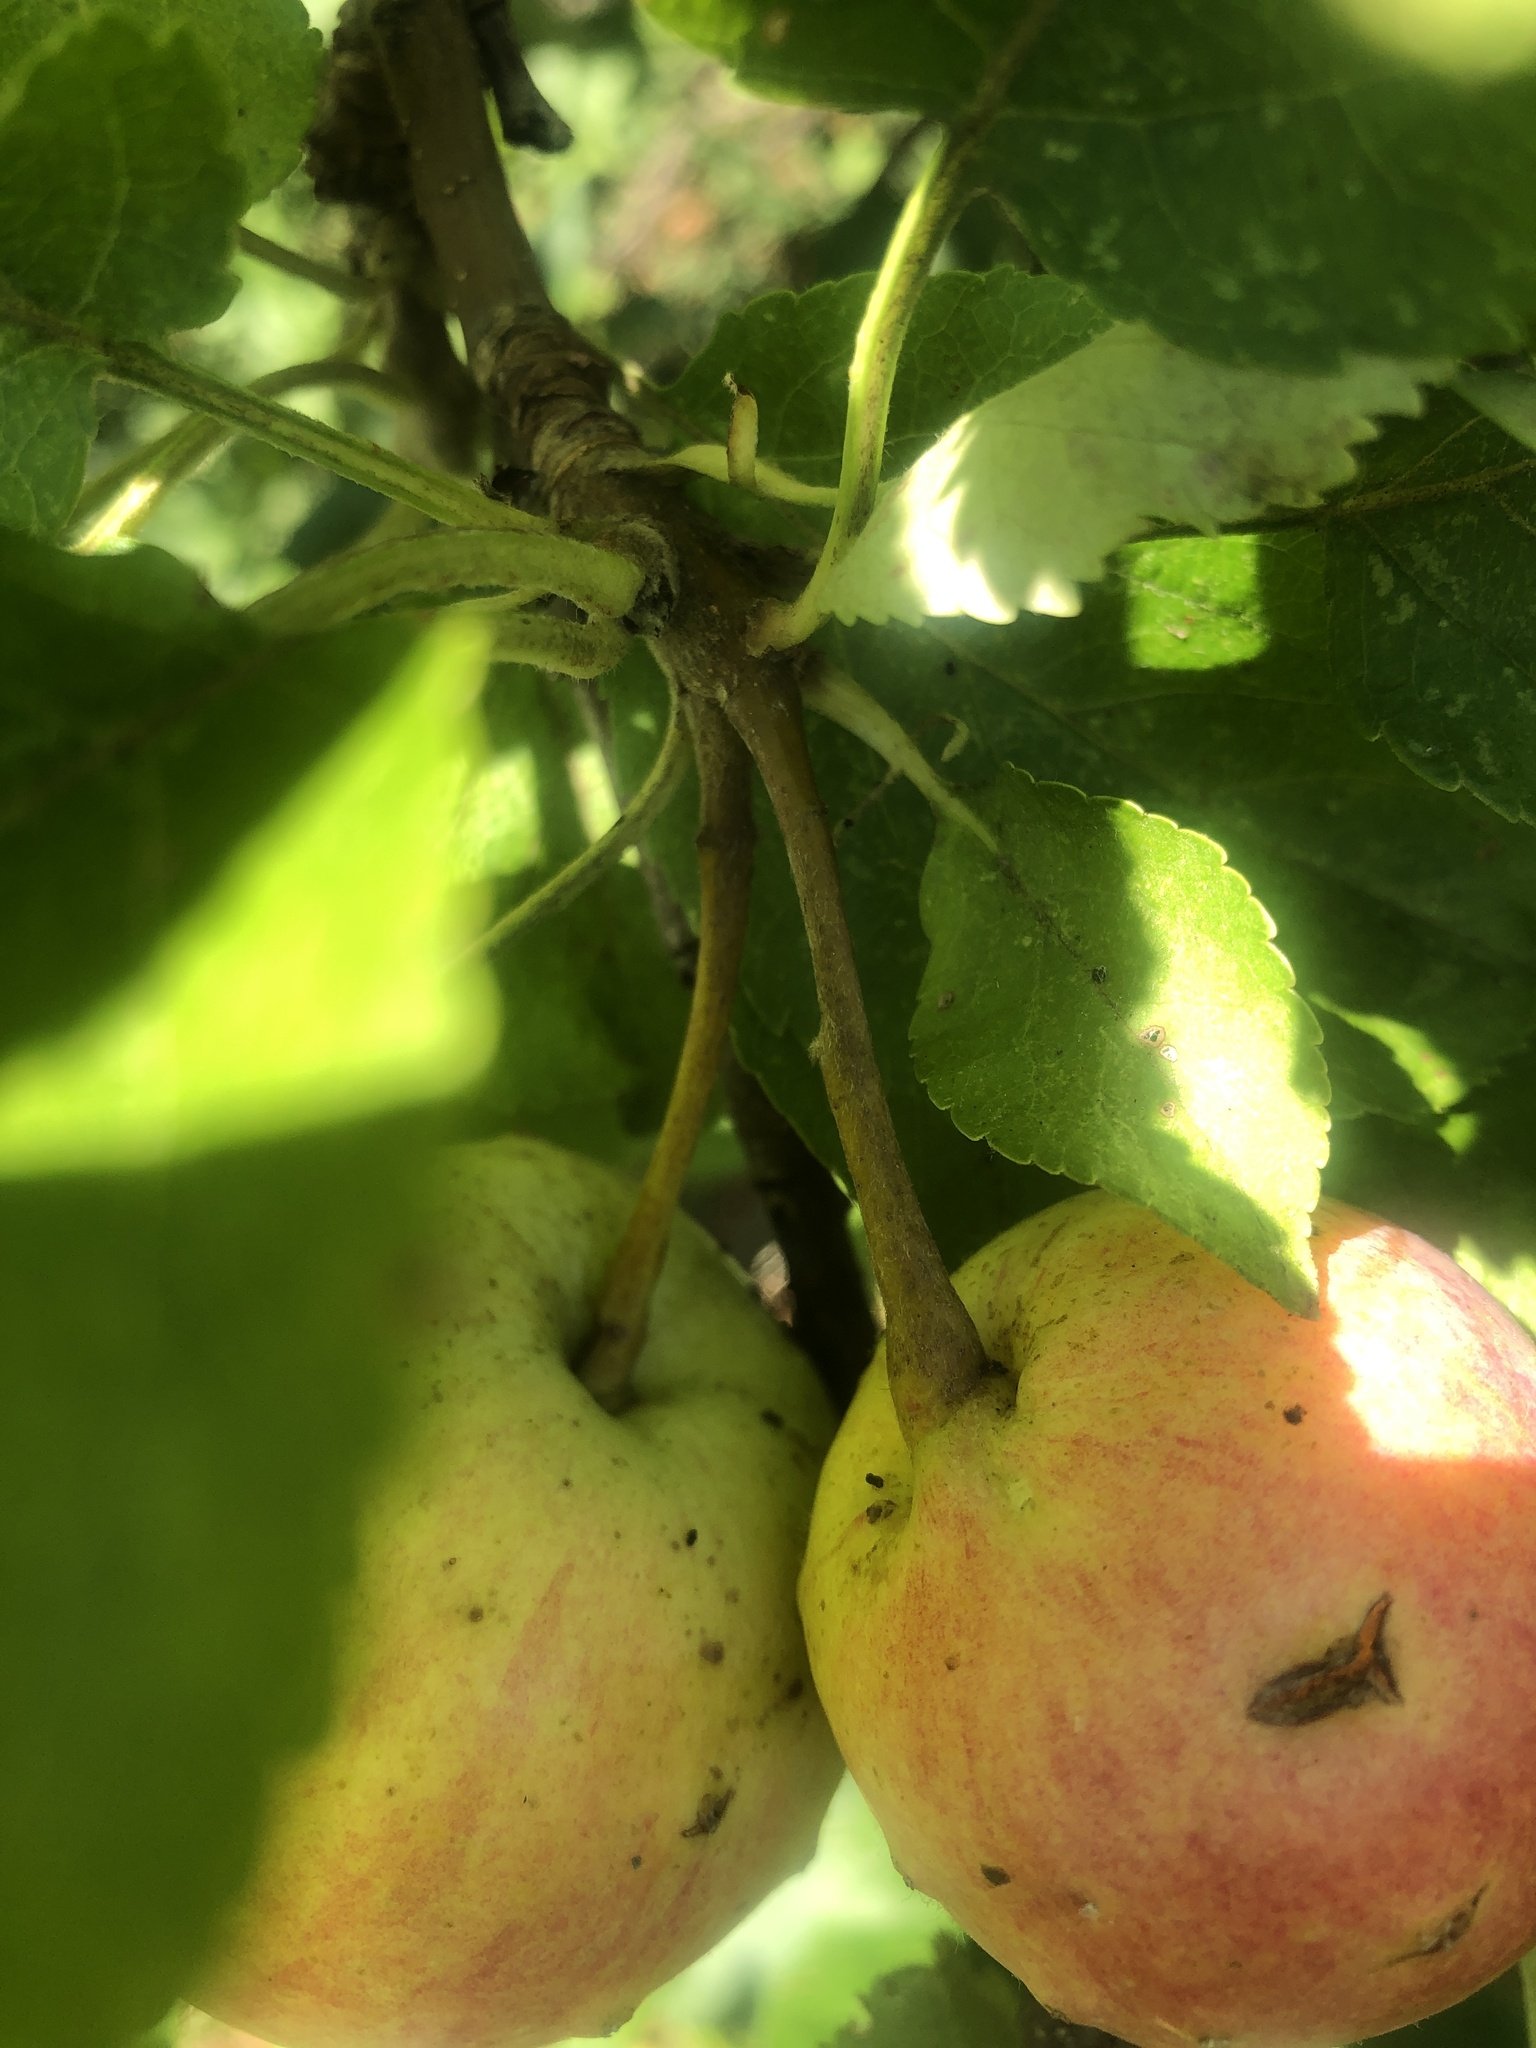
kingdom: Plantae
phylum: Tracheophyta
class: Magnoliopsida
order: Rosales
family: Rosaceae
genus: Malus
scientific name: Malus domestica
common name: Apple
